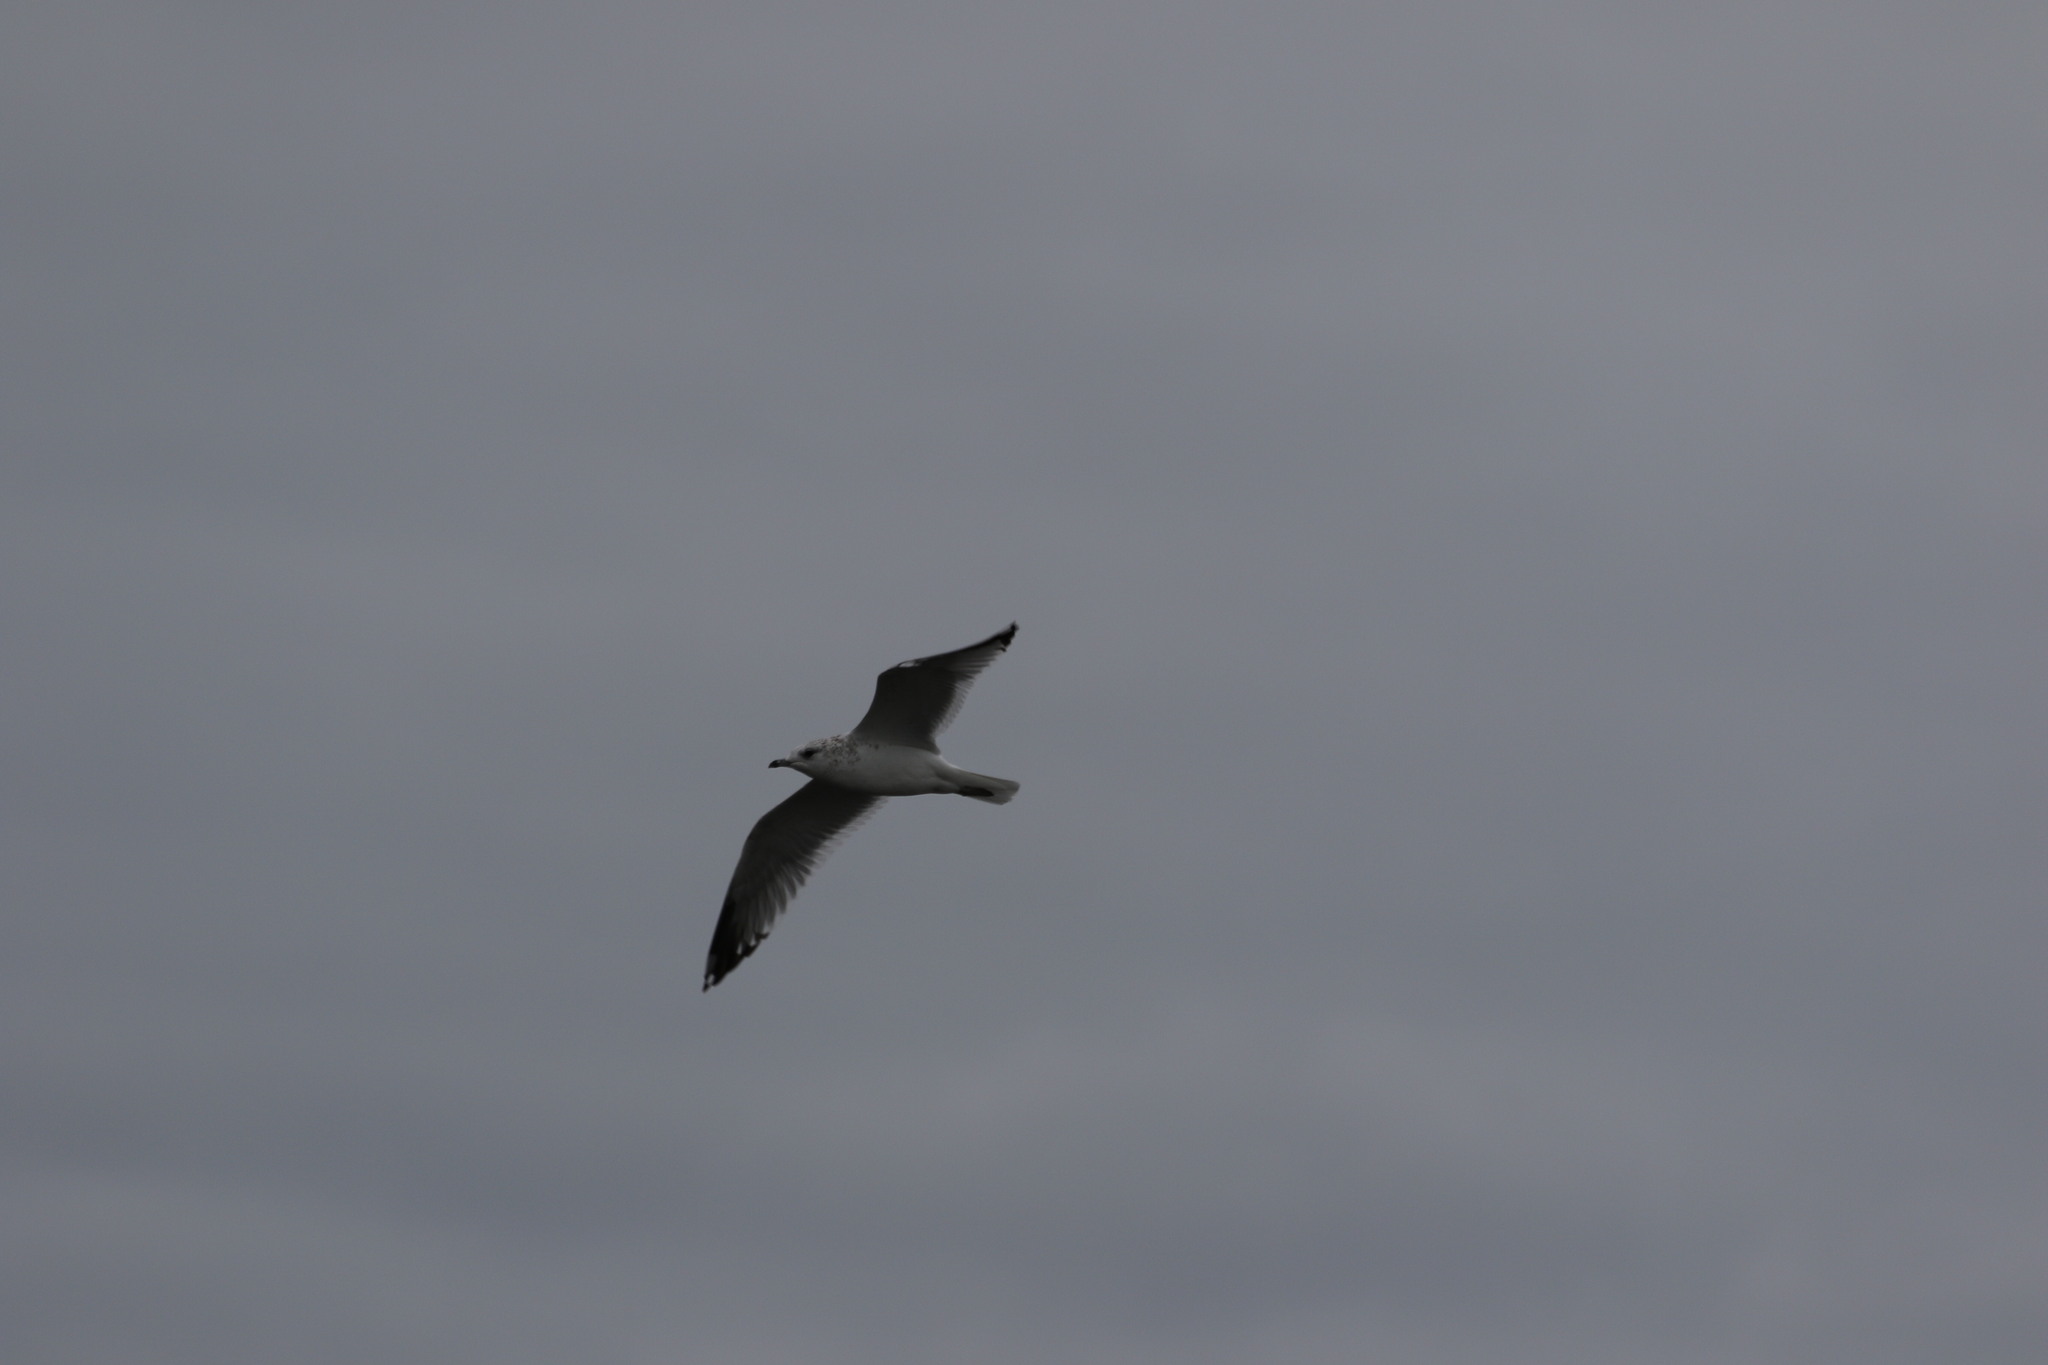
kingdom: Animalia
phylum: Chordata
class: Aves
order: Charadriiformes
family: Laridae
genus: Larus
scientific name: Larus canus
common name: Mew gull
